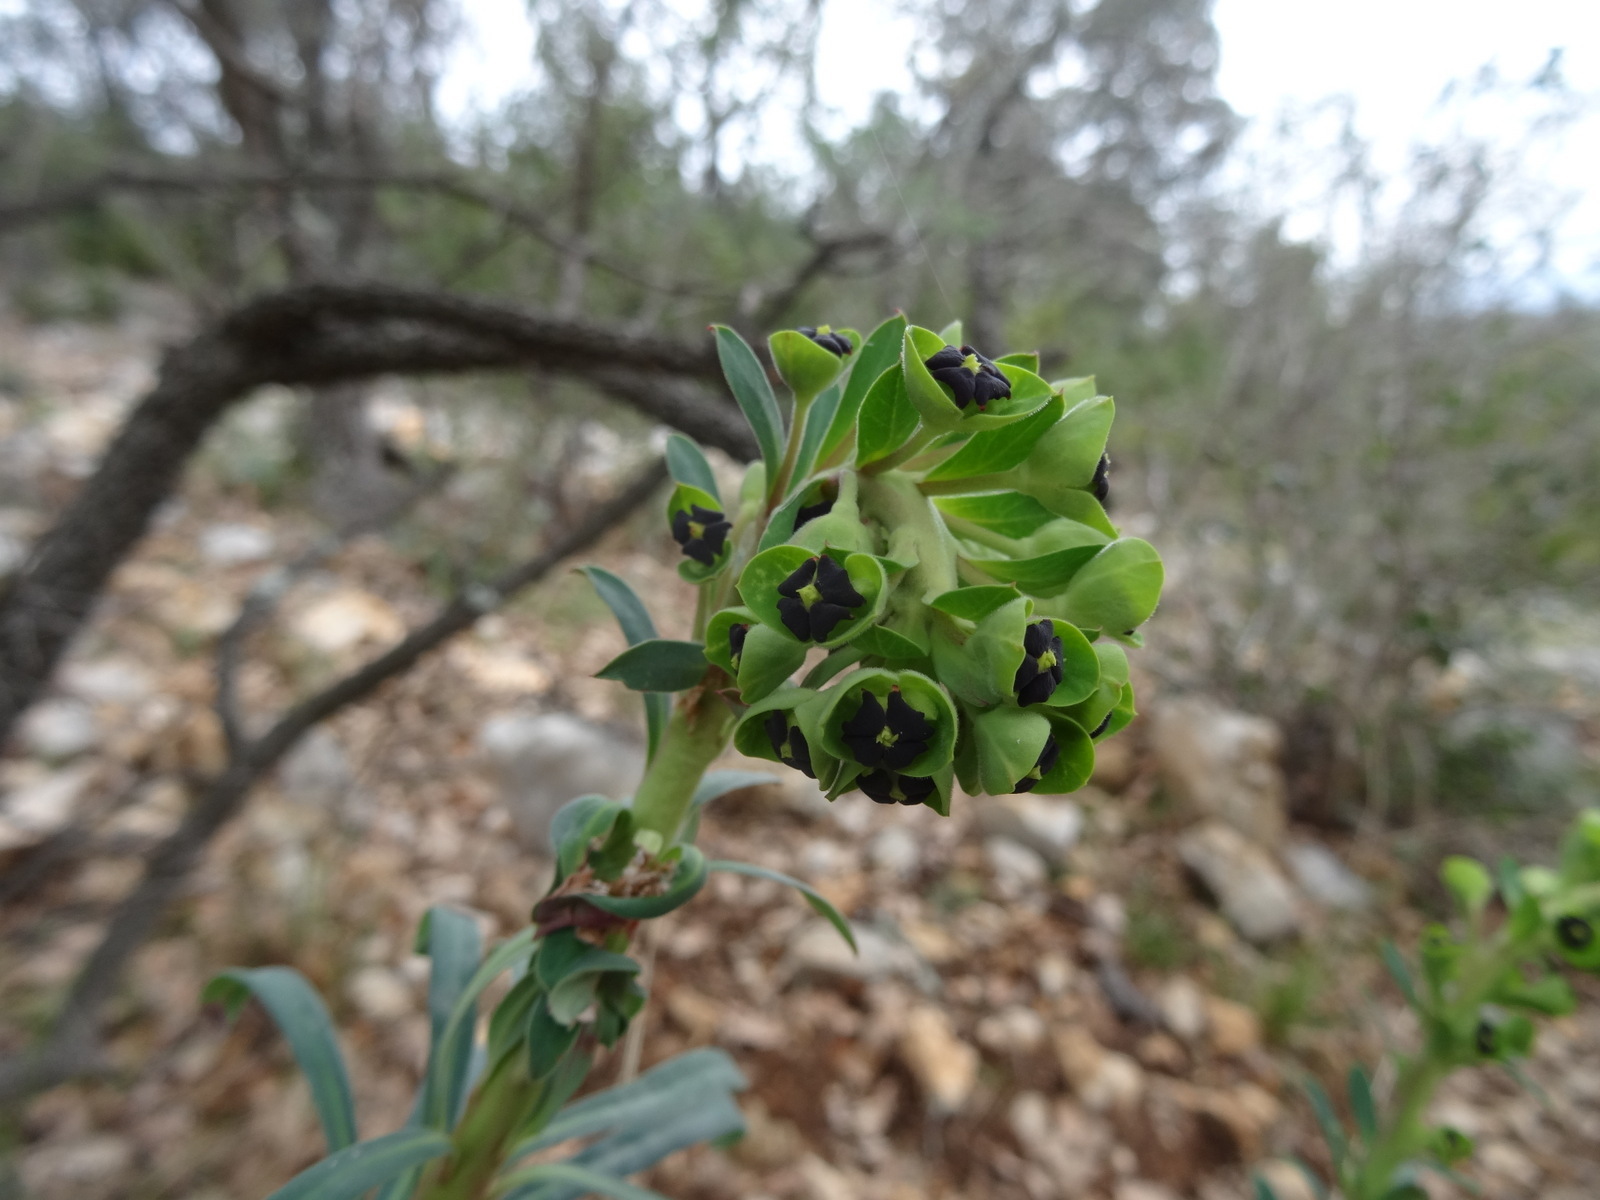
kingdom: Plantae
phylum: Tracheophyta
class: Magnoliopsida
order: Malpighiales
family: Euphorbiaceae
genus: Euphorbia
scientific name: Euphorbia characias
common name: Mediterranean spurge
